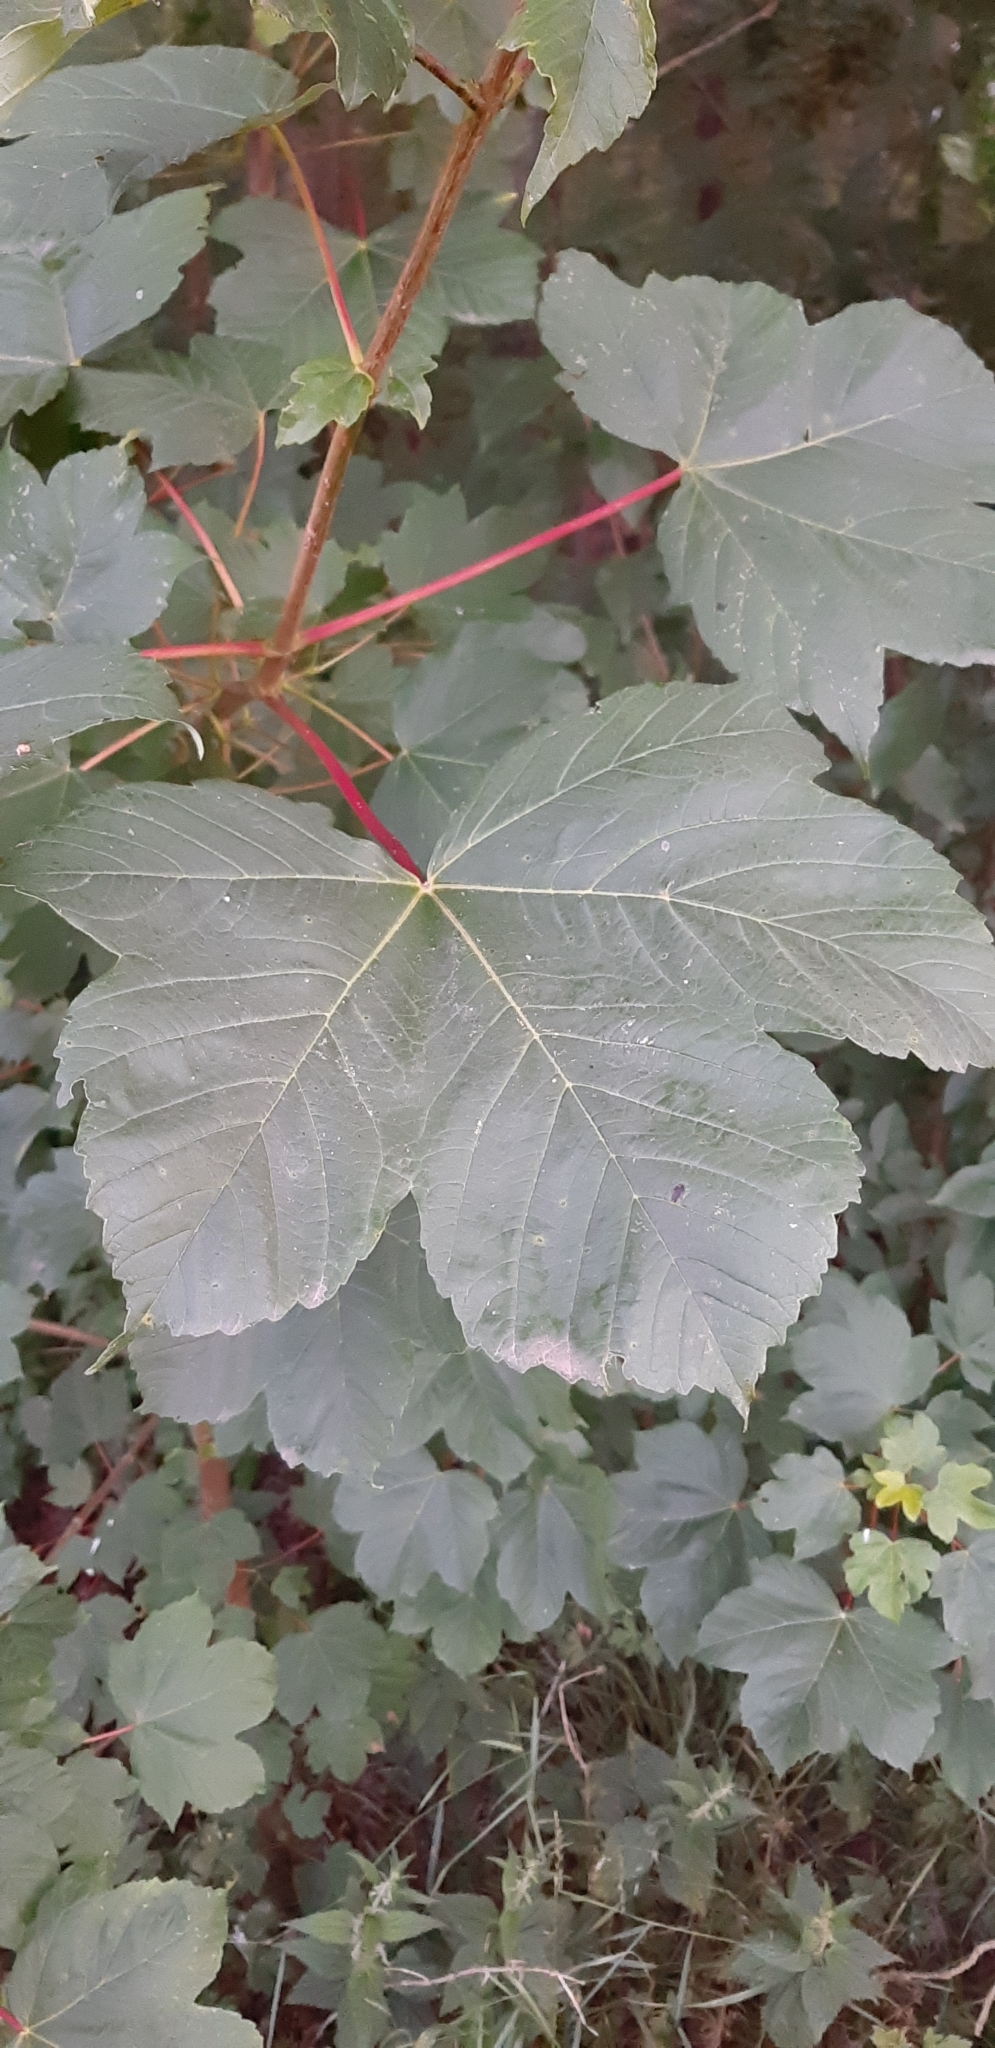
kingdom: Plantae
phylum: Tracheophyta
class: Magnoliopsida
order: Sapindales
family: Sapindaceae
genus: Acer
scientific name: Acer pseudoplatanus
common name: Sycamore
